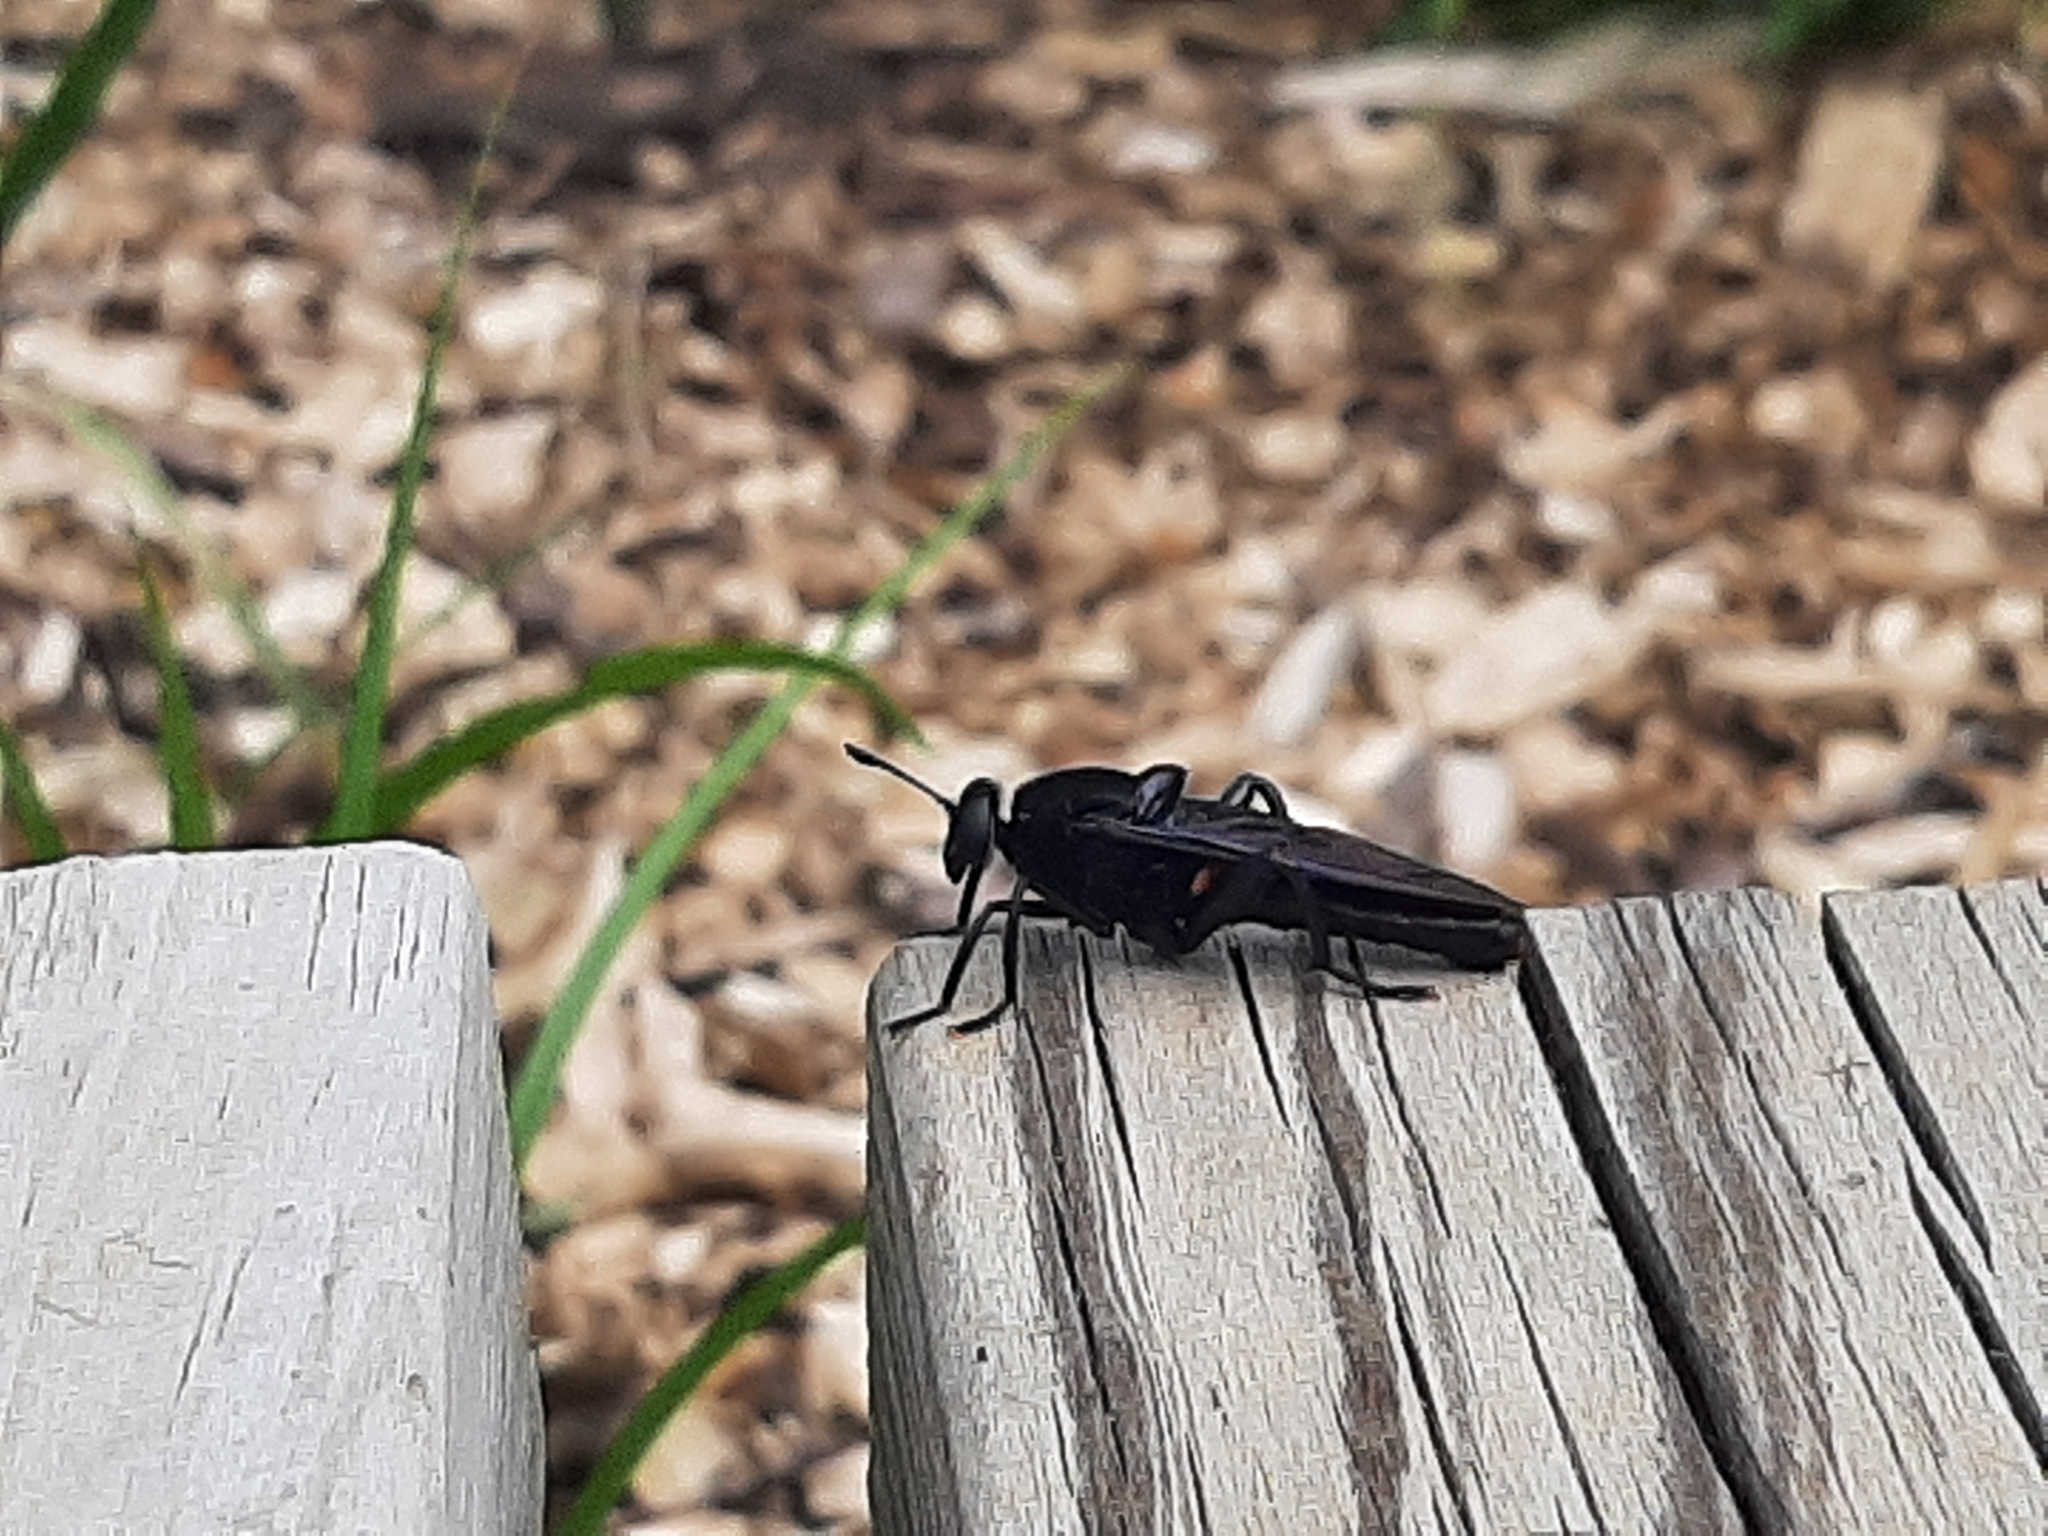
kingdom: Animalia
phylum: Arthropoda
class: Insecta
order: Diptera
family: Mydidae
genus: Mydas
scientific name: Mydas clavatus
